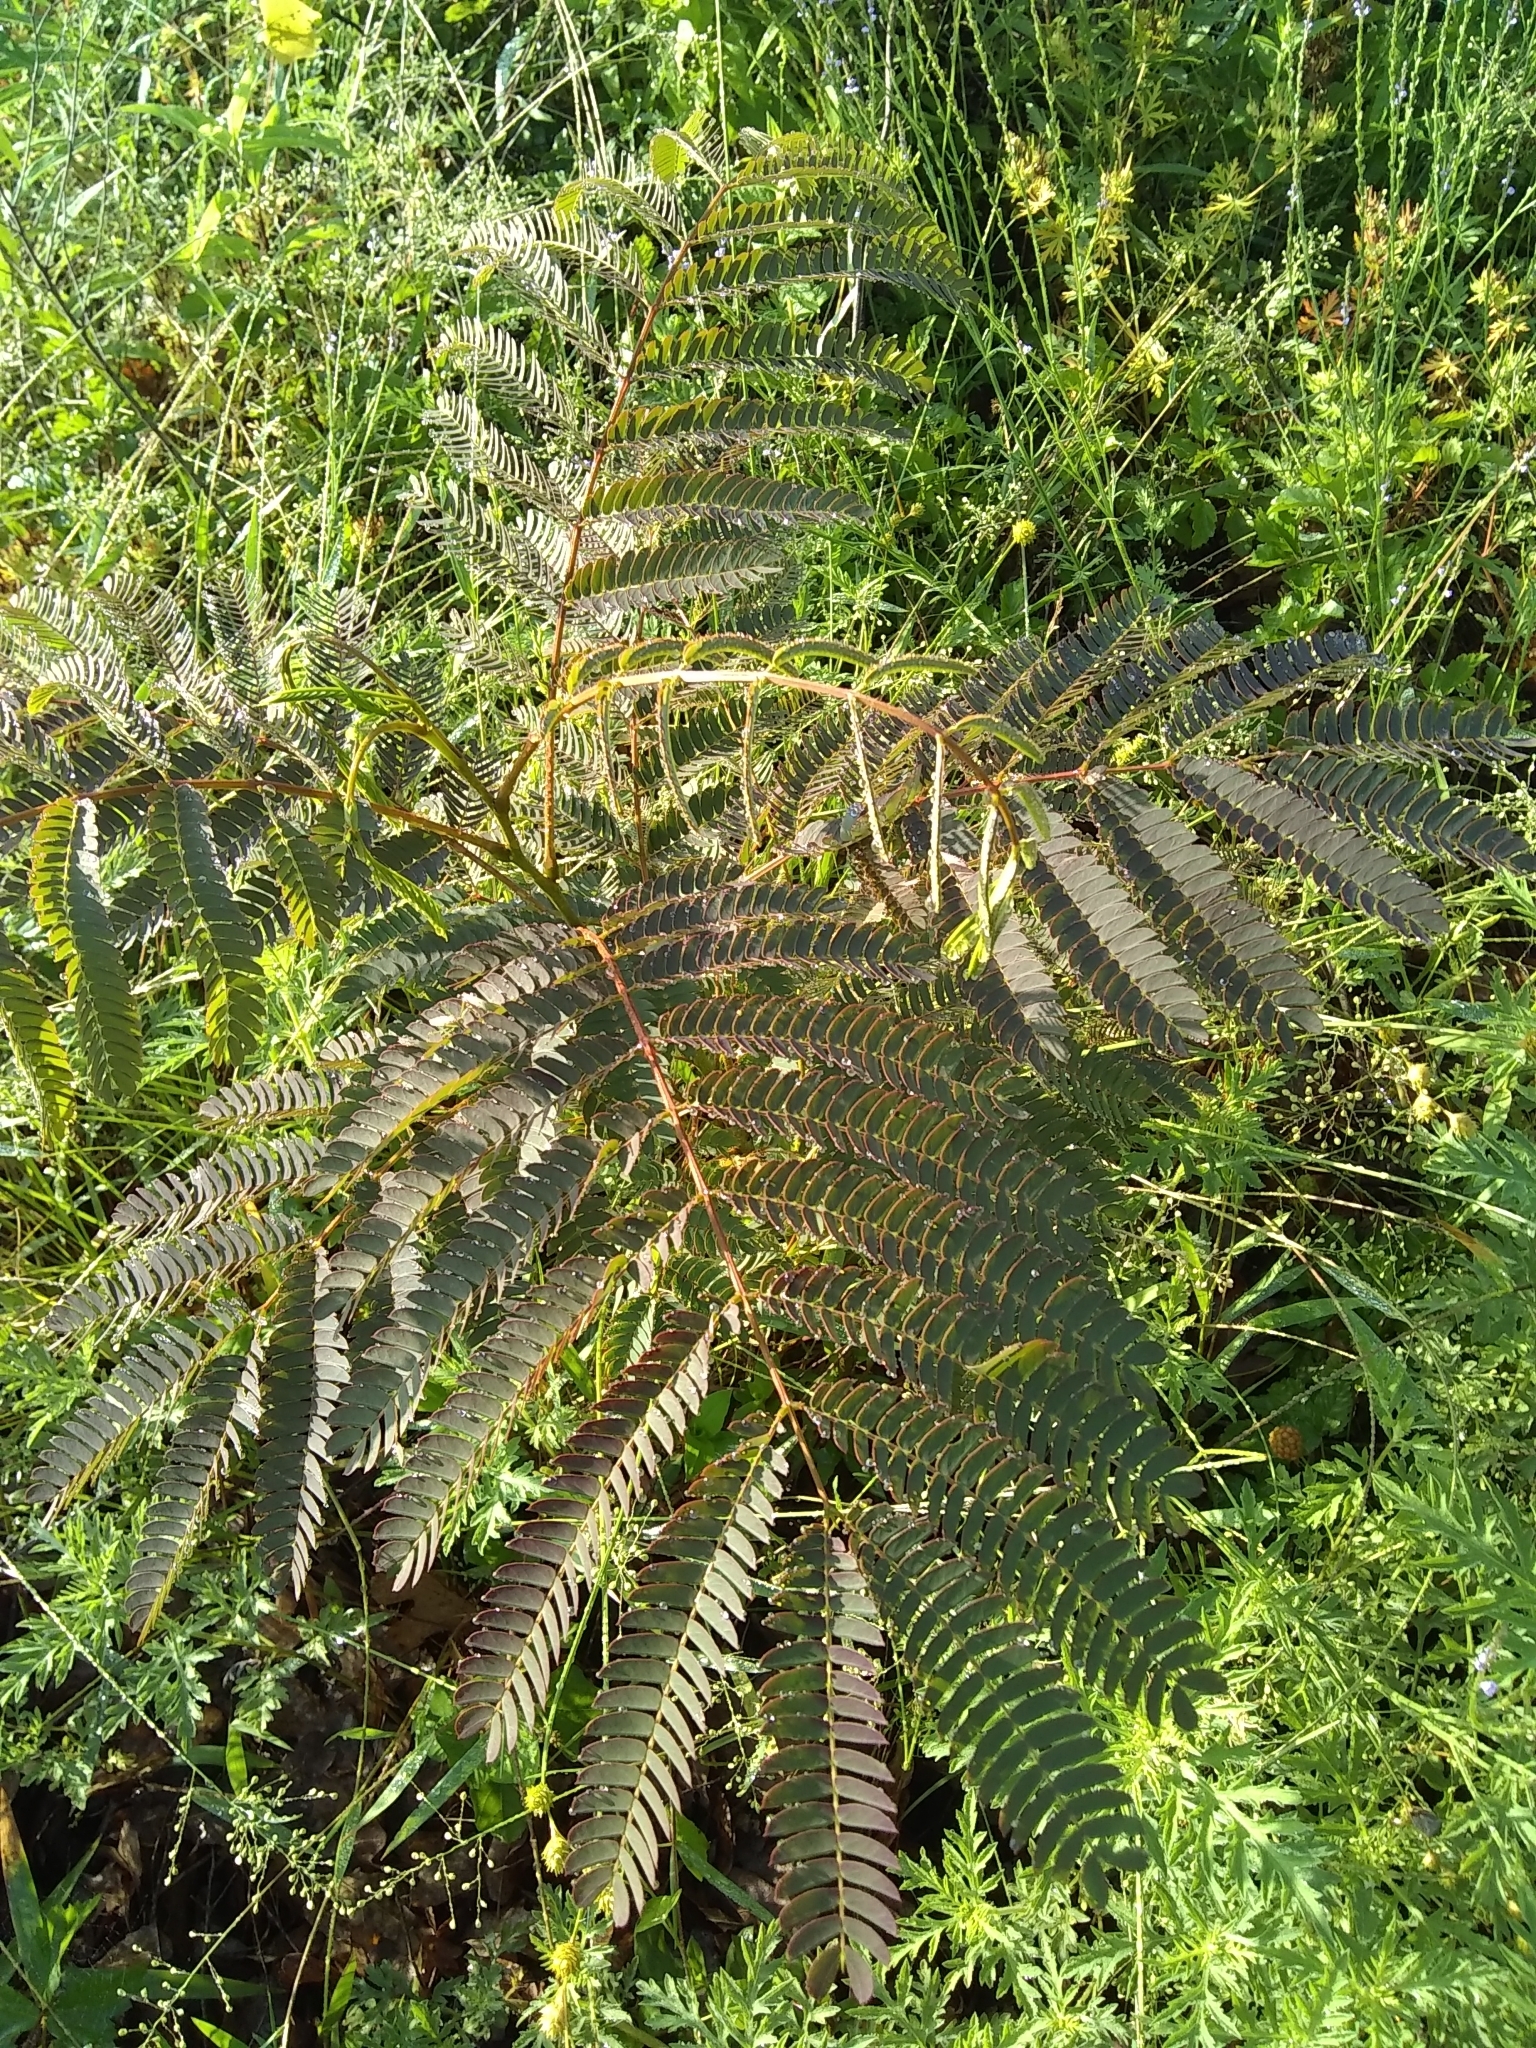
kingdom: Plantae
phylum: Tracheophyta
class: Magnoliopsida
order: Fabales
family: Fabaceae
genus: Albizia
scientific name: Albizia julibrissin
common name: Silktree
